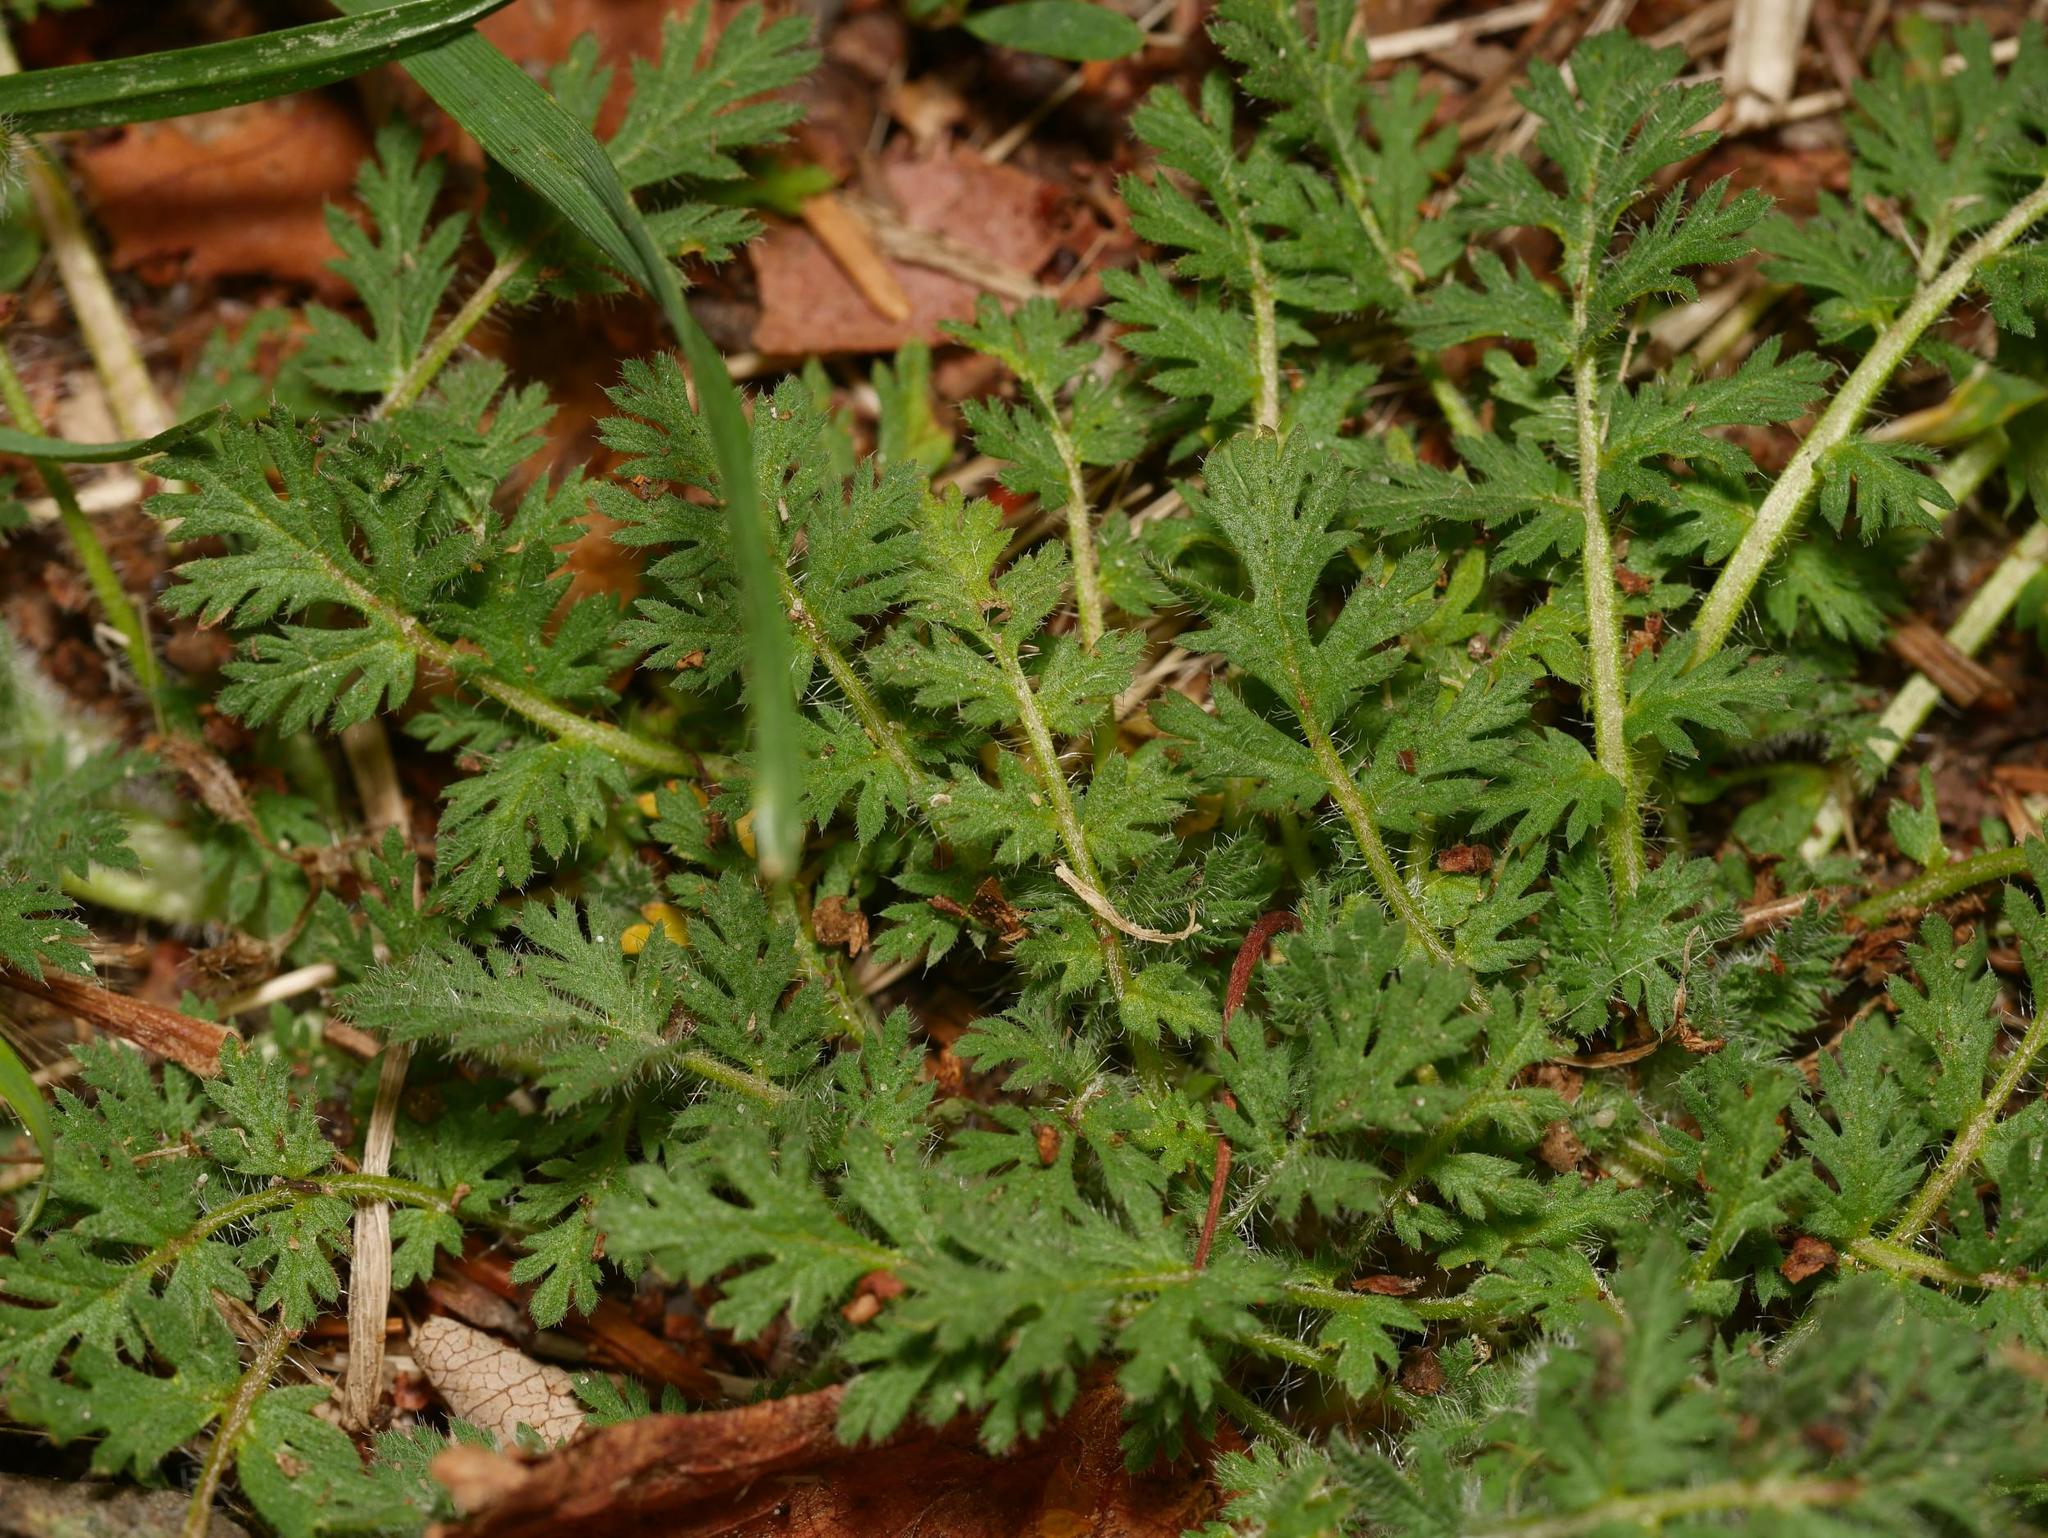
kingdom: Plantae
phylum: Tracheophyta
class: Magnoliopsida
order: Geraniales
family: Geraniaceae
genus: Erodium
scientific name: Erodium cicutarium
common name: Common stork's-bill
